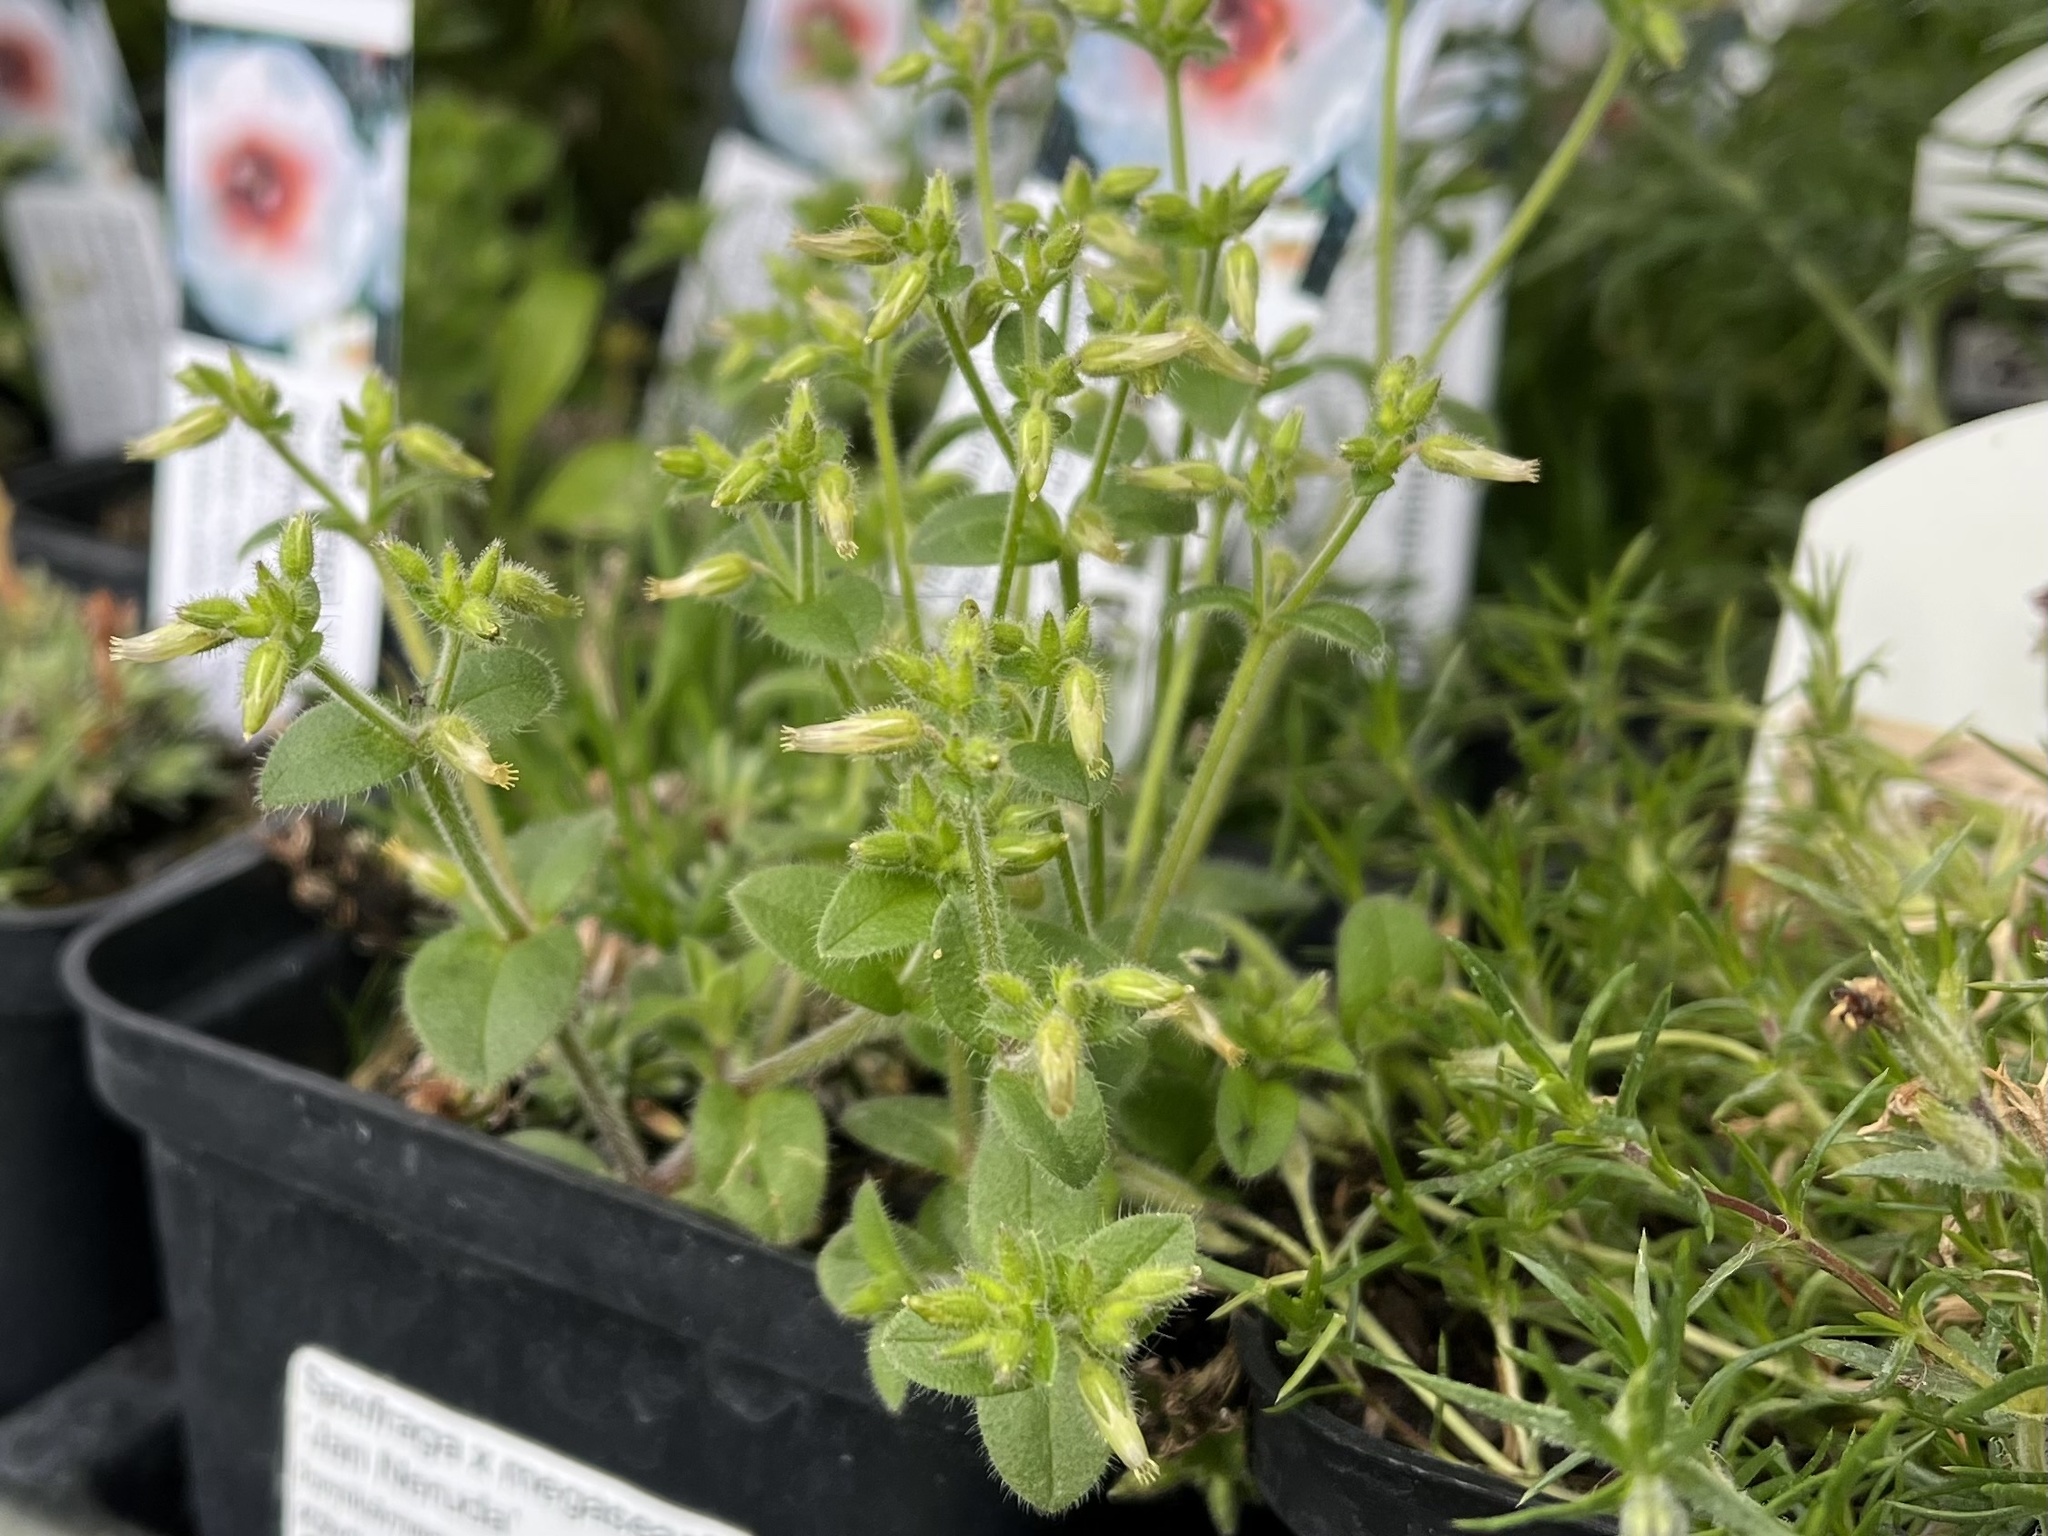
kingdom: Plantae
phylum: Tracheophyta
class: Magnoliopsida
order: Caryophyllales
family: Caryophyllaceae
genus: Cerastium
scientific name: Cerastium glomeratum
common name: Sticky chickweed
